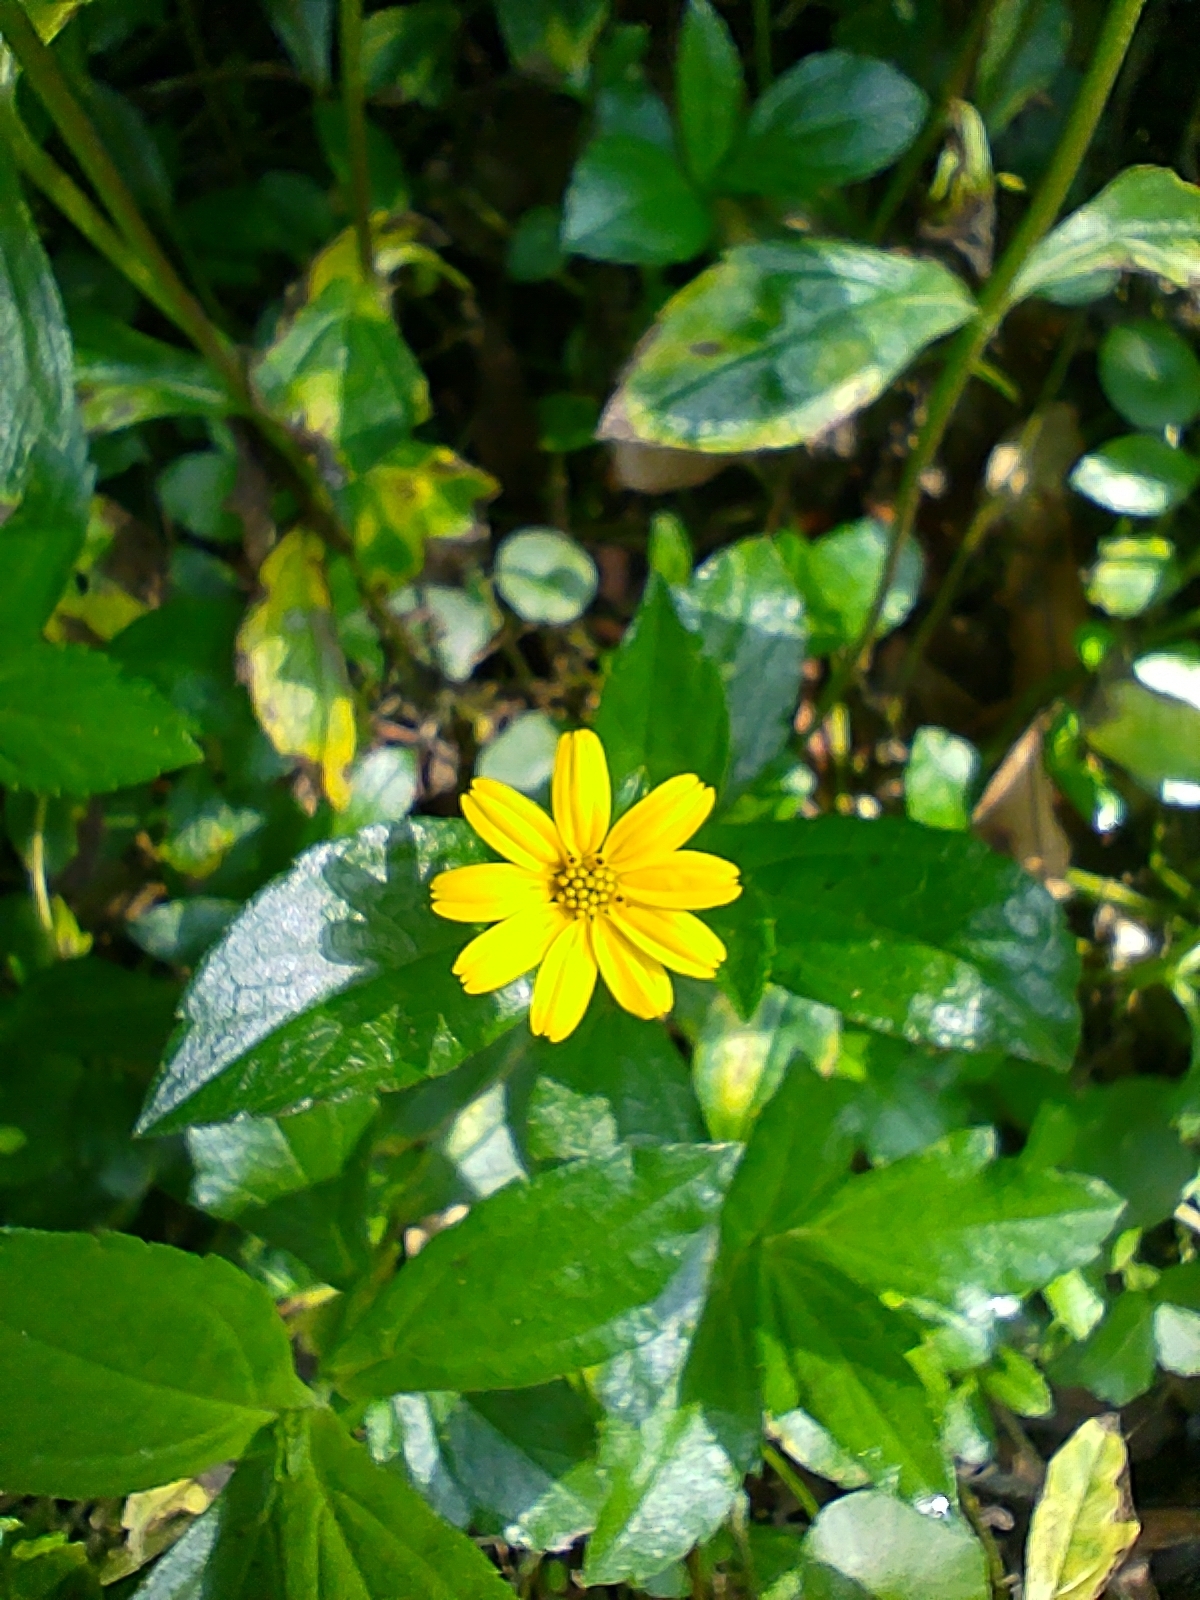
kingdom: Plantae
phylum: Tracheophyta
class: Magnoliopsida
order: Asterales
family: Asteraceae
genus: Sphagneticola
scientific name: Sphagneticola trilobata
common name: Bay biscayne creeping-oxeye
